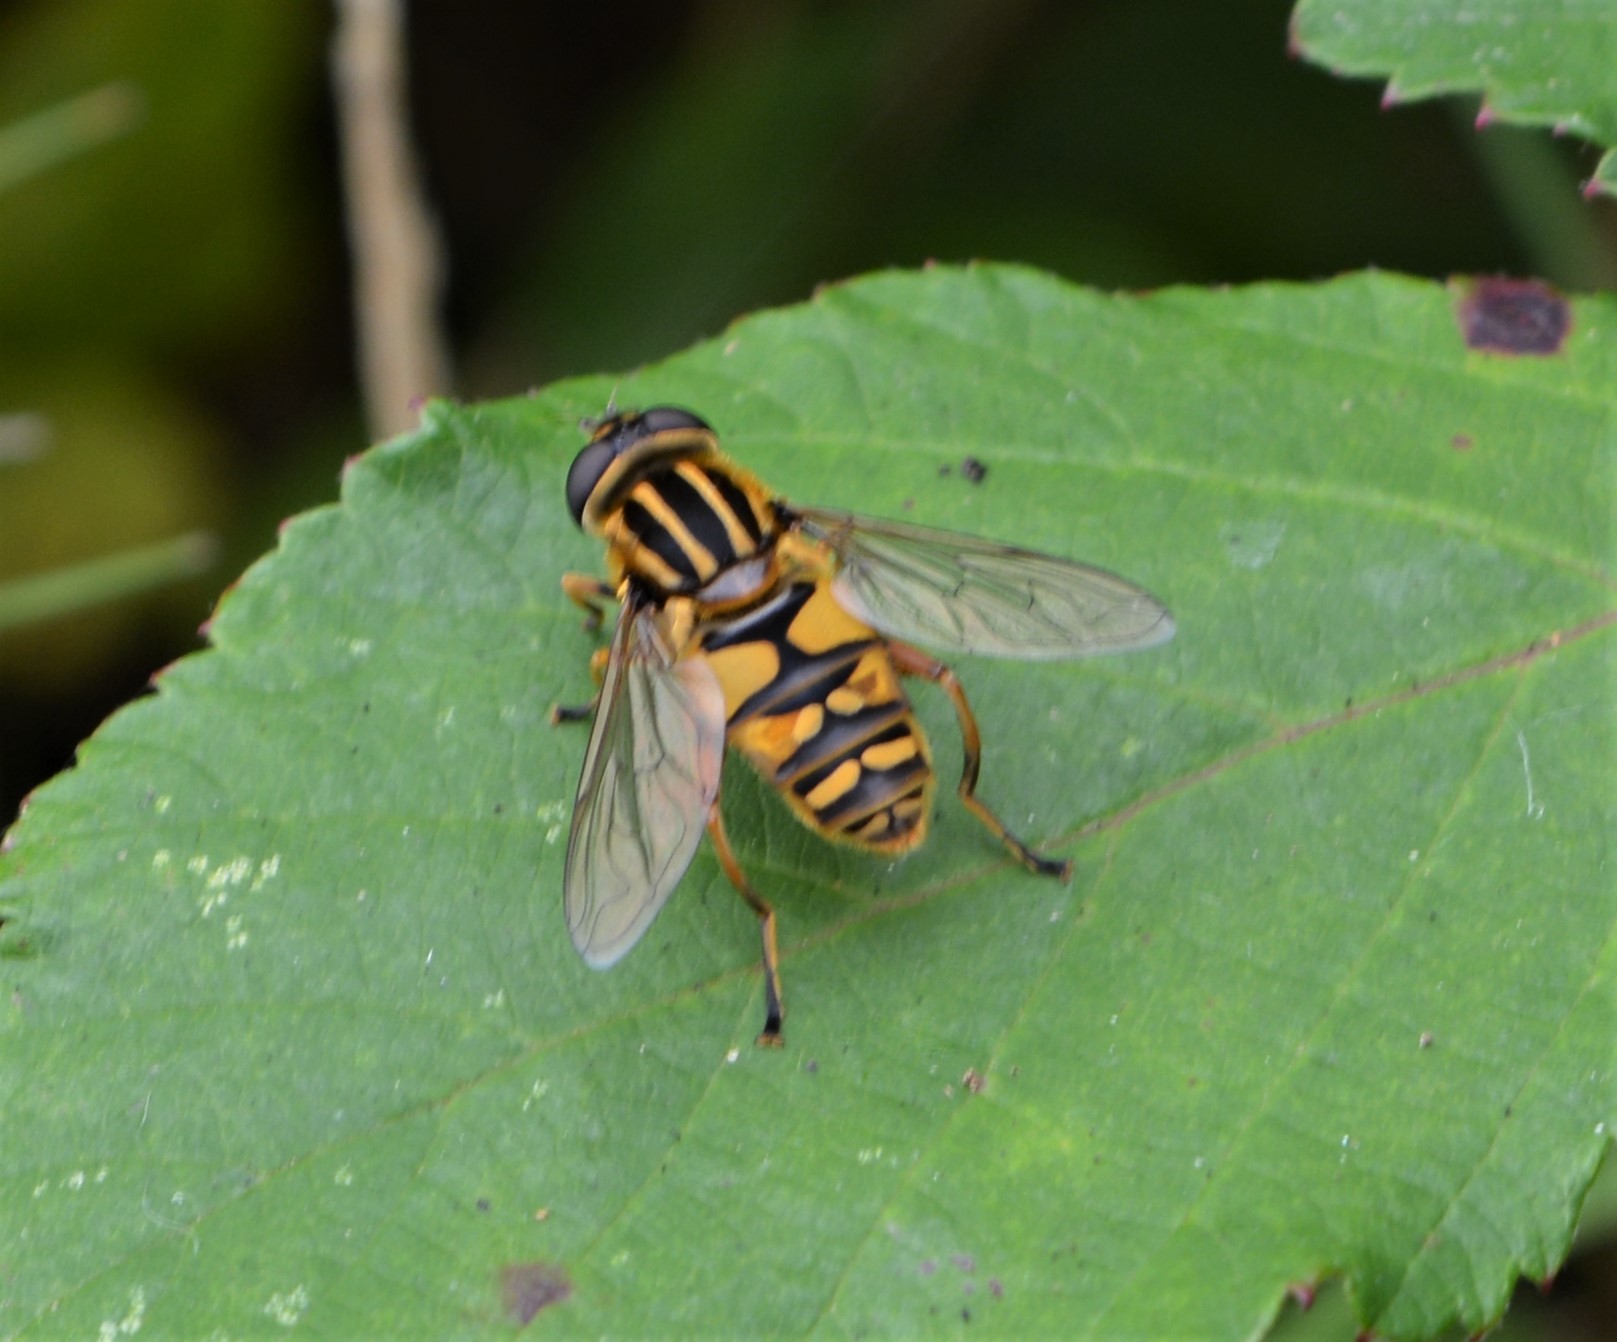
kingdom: Animalia
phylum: Arthropoda
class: Insecta
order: Diptera
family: Syrphidae
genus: Helophilus
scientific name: Helophilus pendulus
